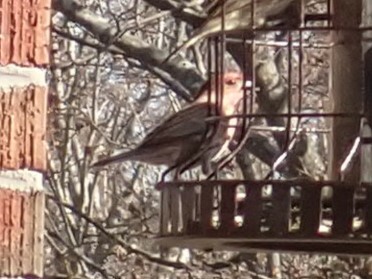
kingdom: Animalia
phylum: Chordata
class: Aves
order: Passeriformes
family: Fringillidae
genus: Haemorhous
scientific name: Haemorhous mexicanus
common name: House finch
